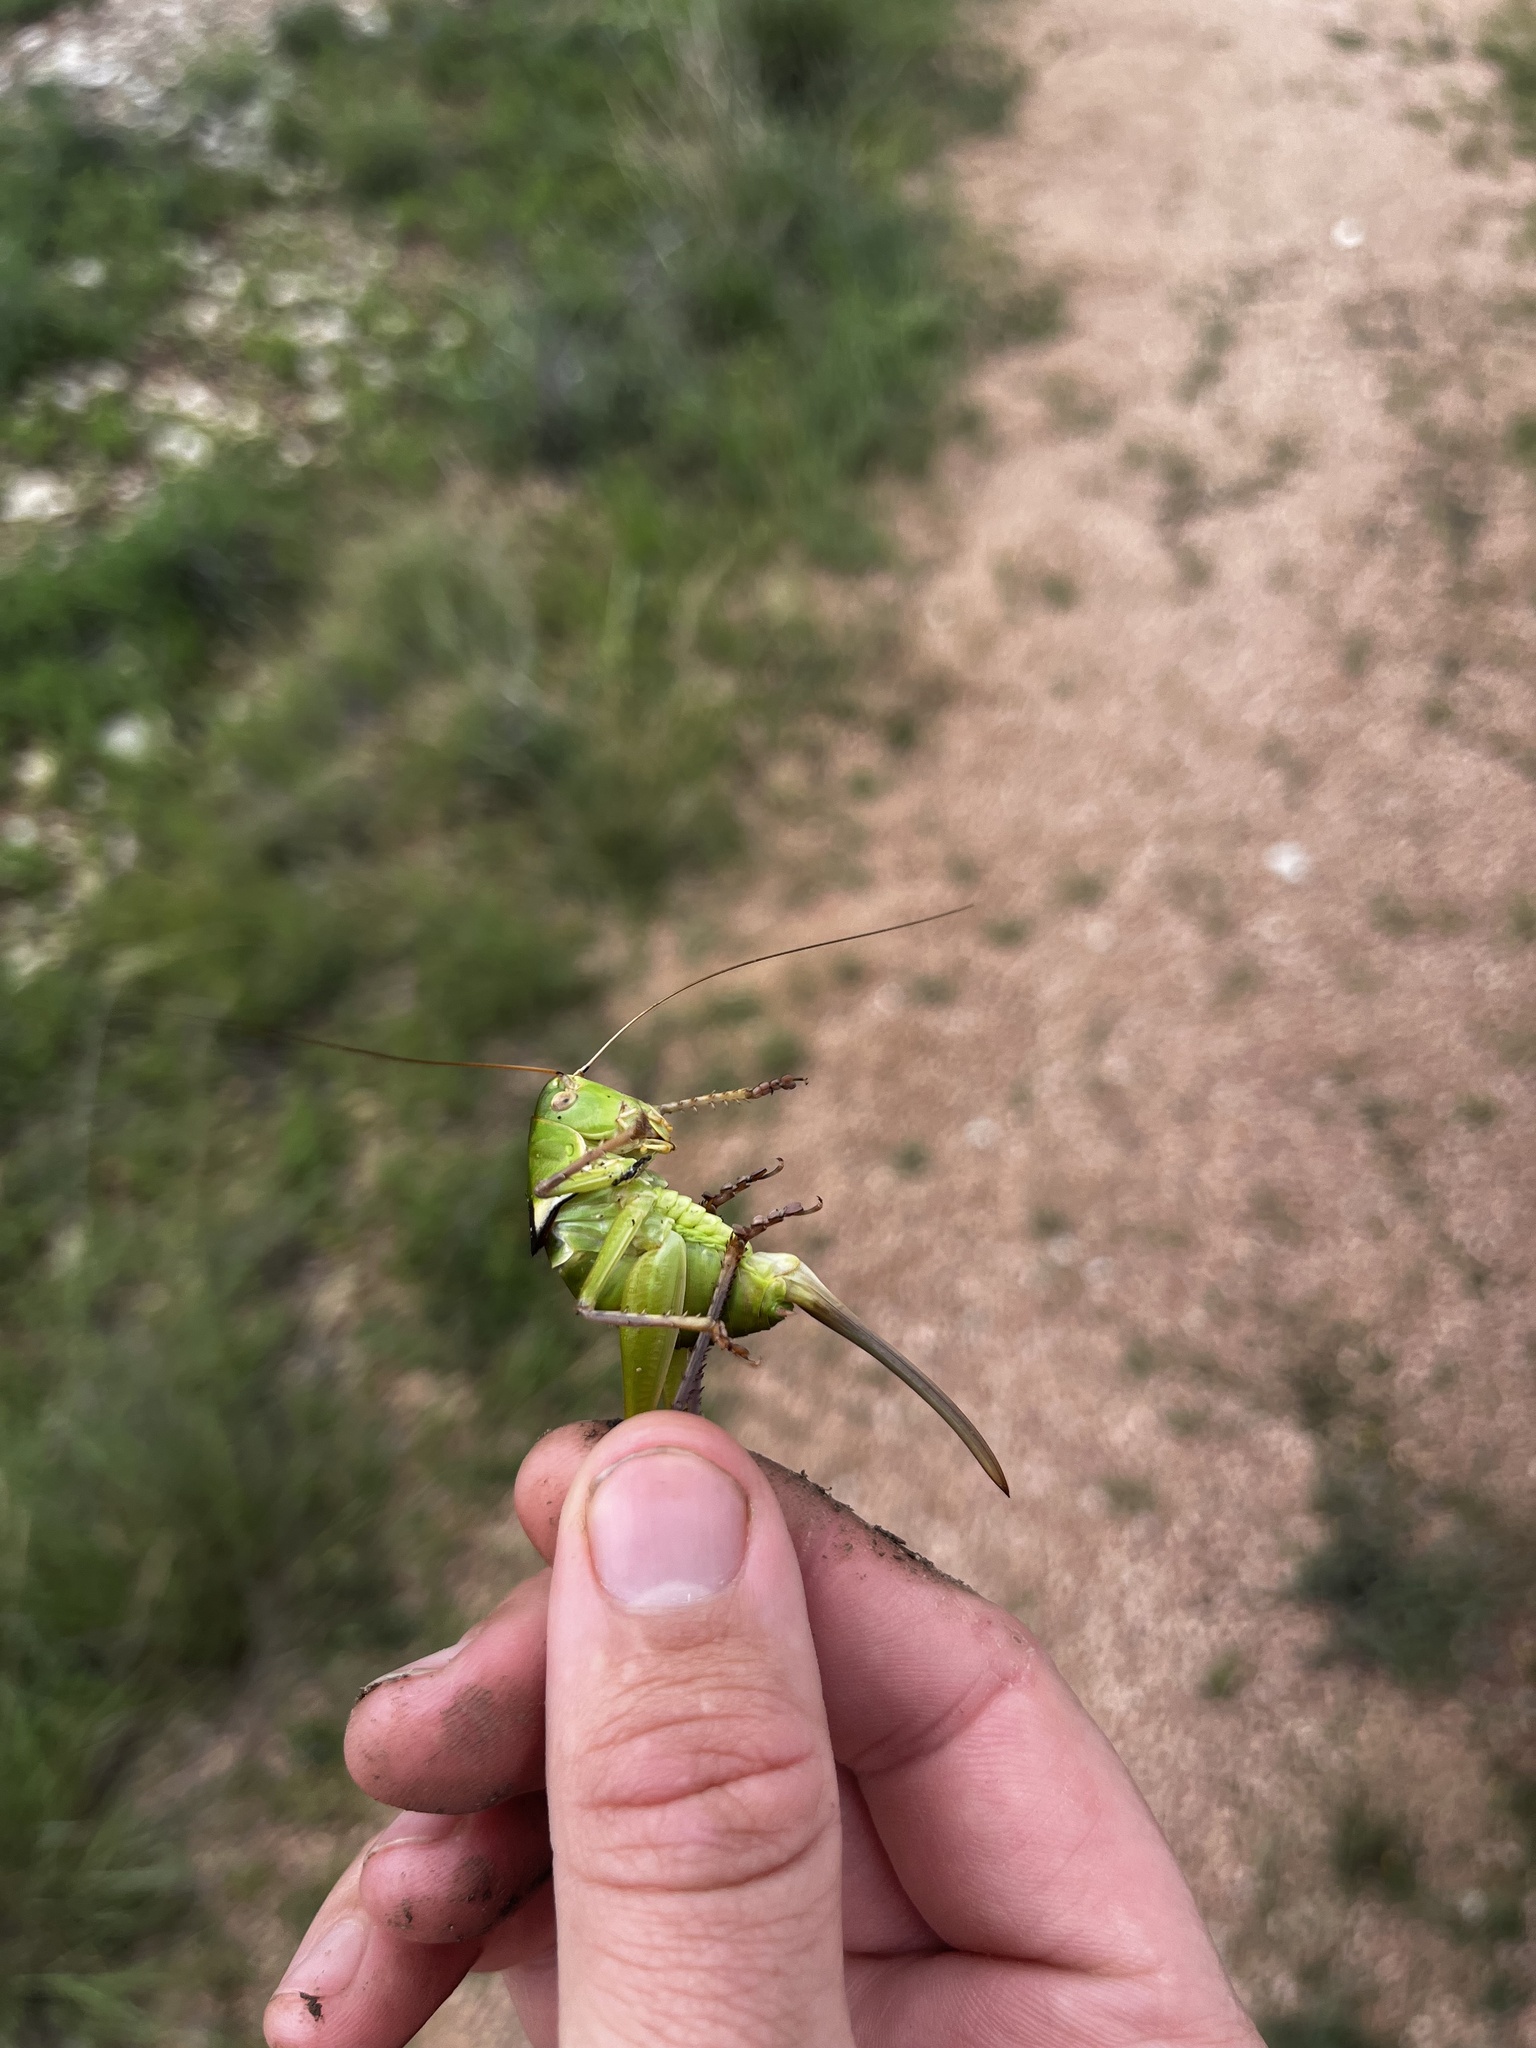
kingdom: Animalia
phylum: Arthropoda
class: Insecta
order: Orthoptera
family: Tettigoniidae
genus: Pediodectes
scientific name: Pediodectes haldemanii
